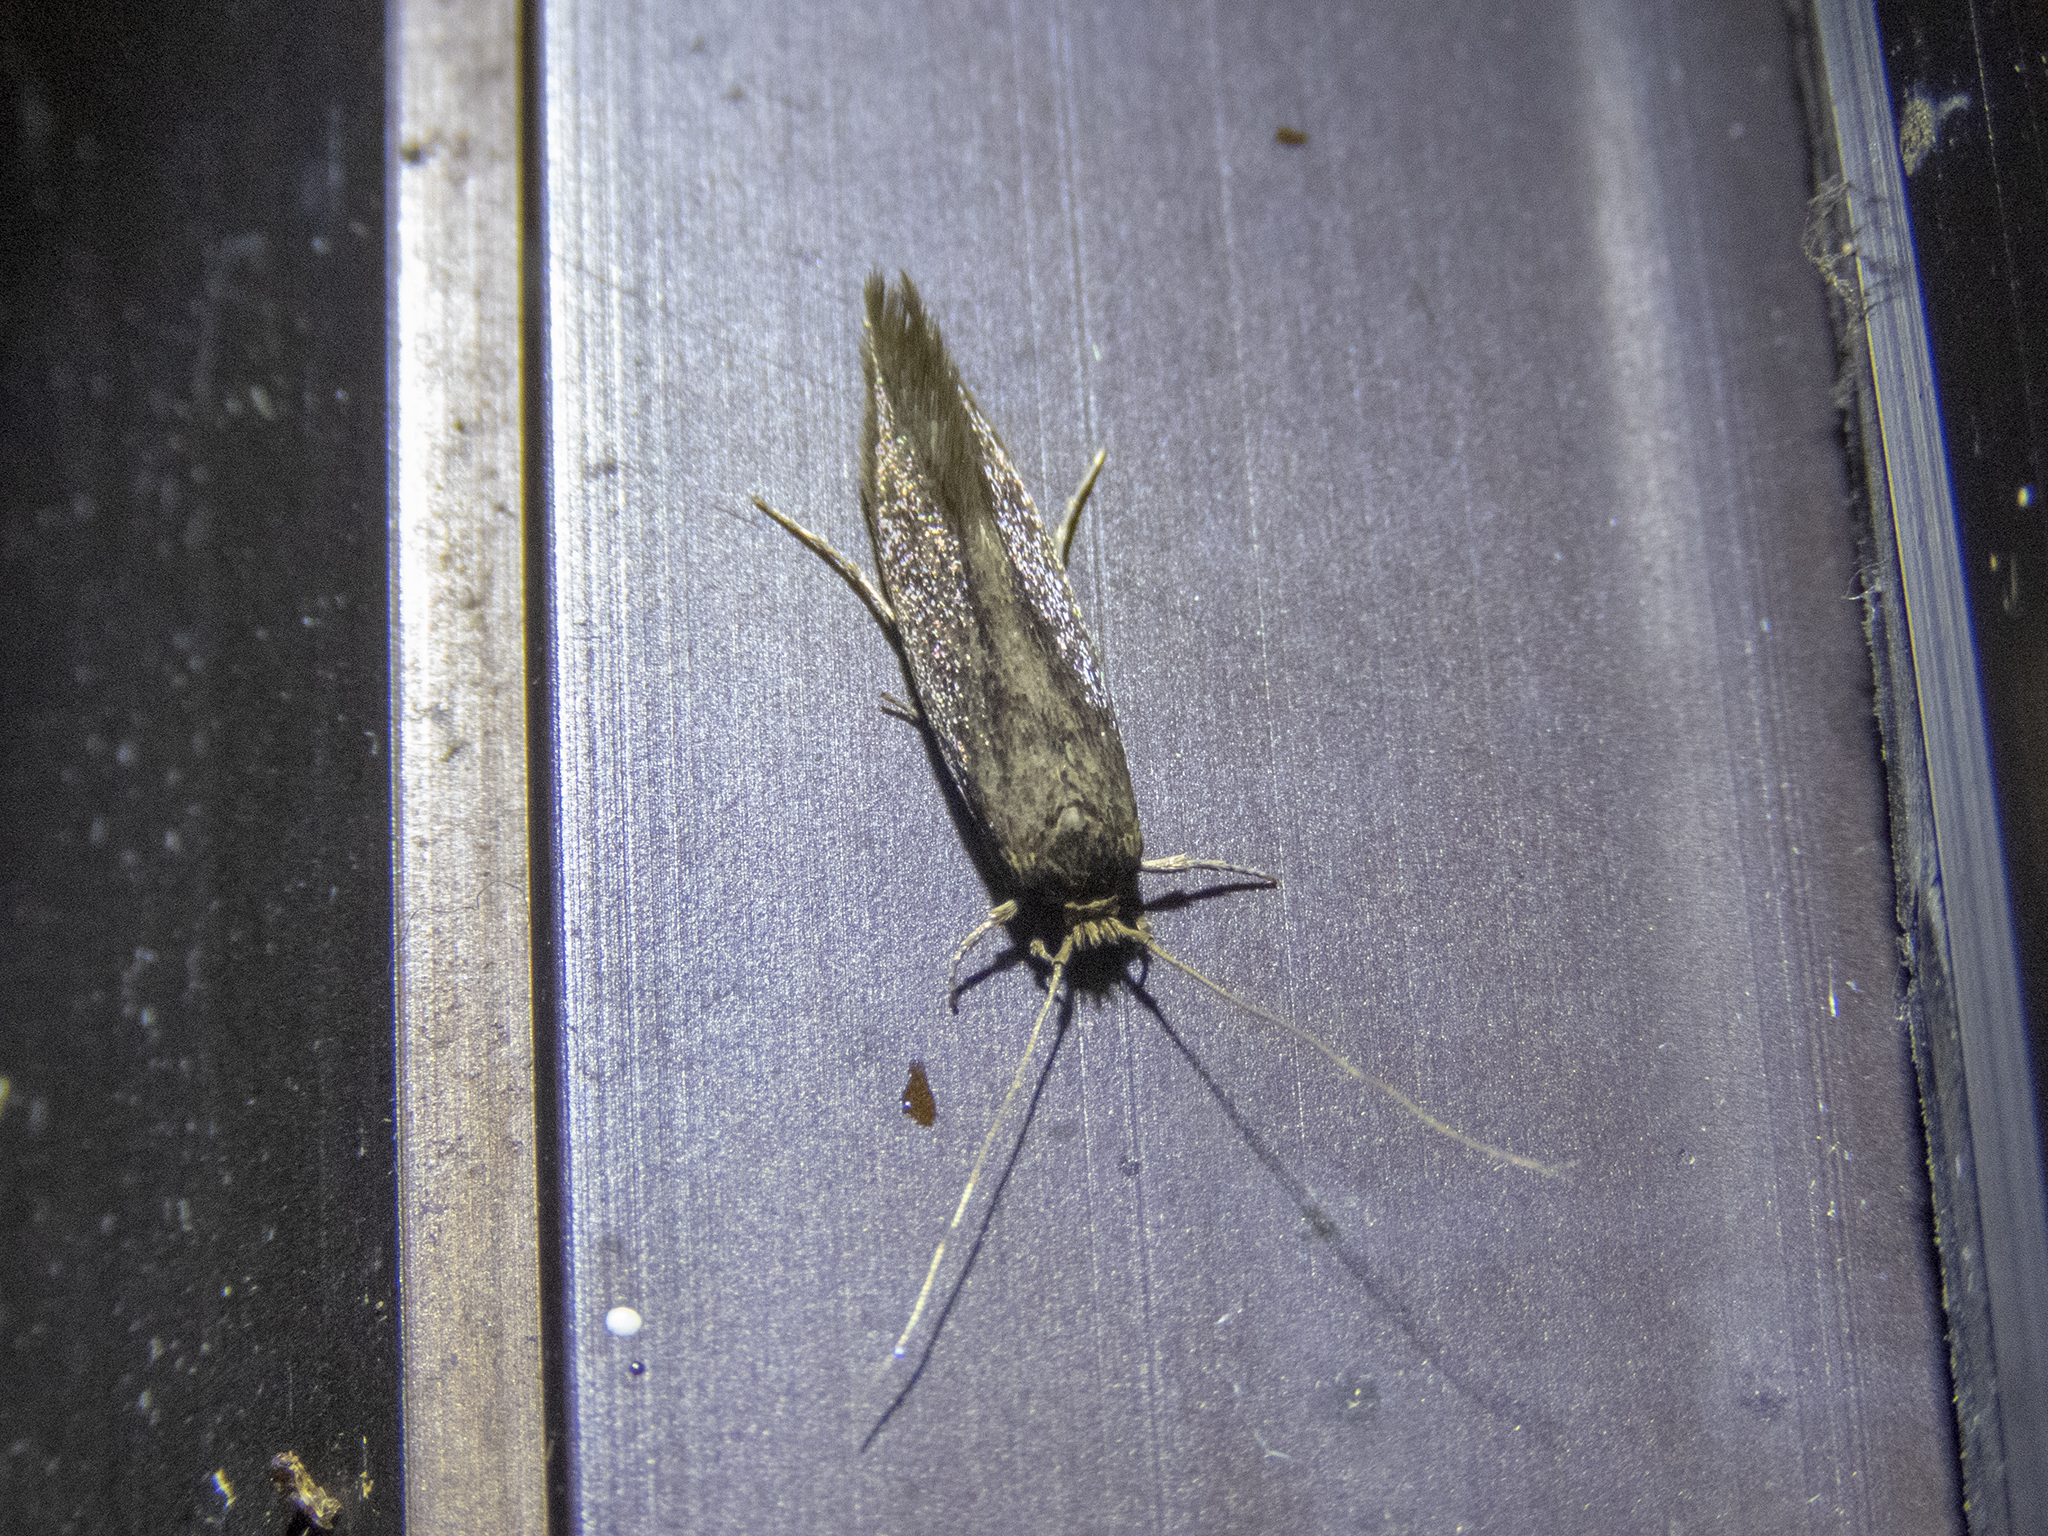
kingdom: Animalia
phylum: Arthropoda
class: Insecta
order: Lepidoptera
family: Tineidae
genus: Opogona
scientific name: Opogona omoscopa
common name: Moth
